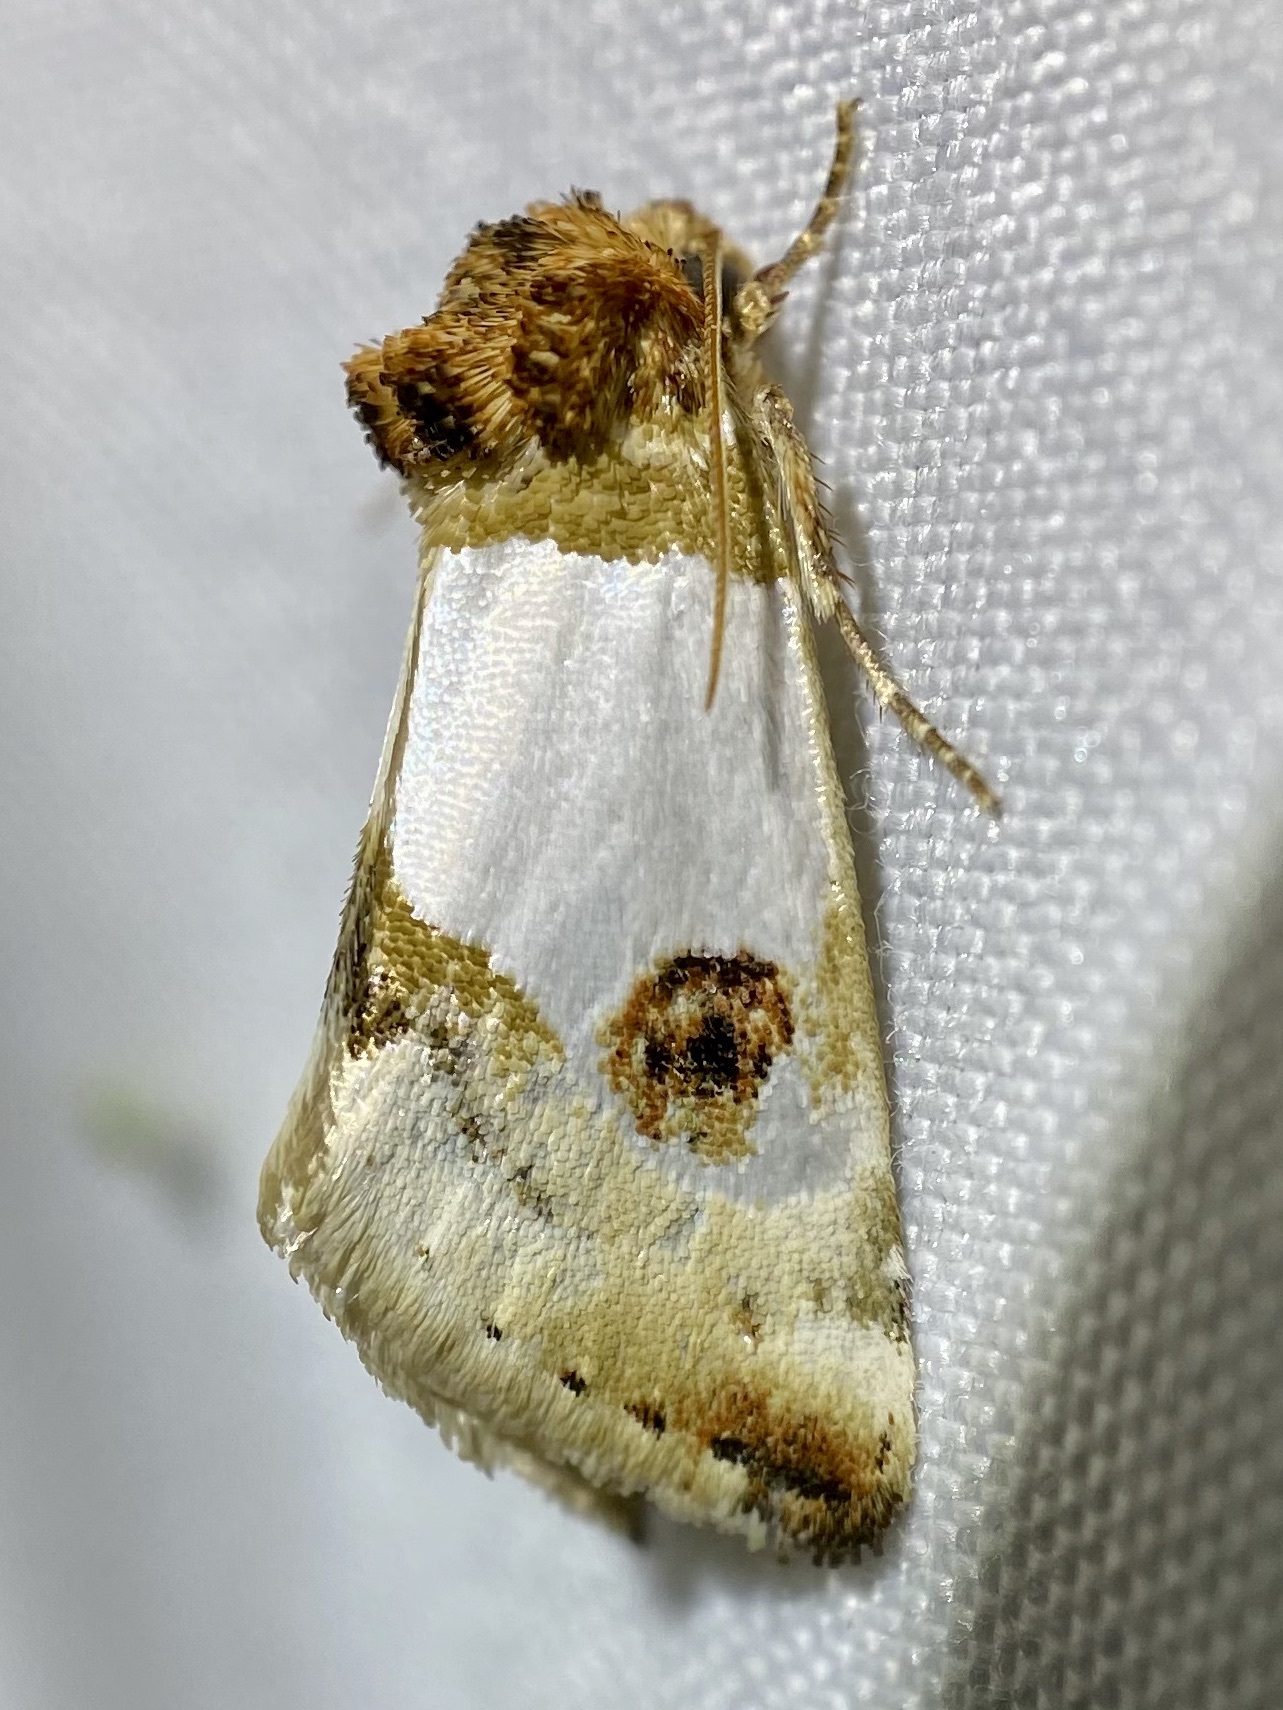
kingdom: Animalia
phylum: Arthropoda
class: Insecta
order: Lepidoptera
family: Noctuidae
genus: Schinia
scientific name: Schinia oculata
